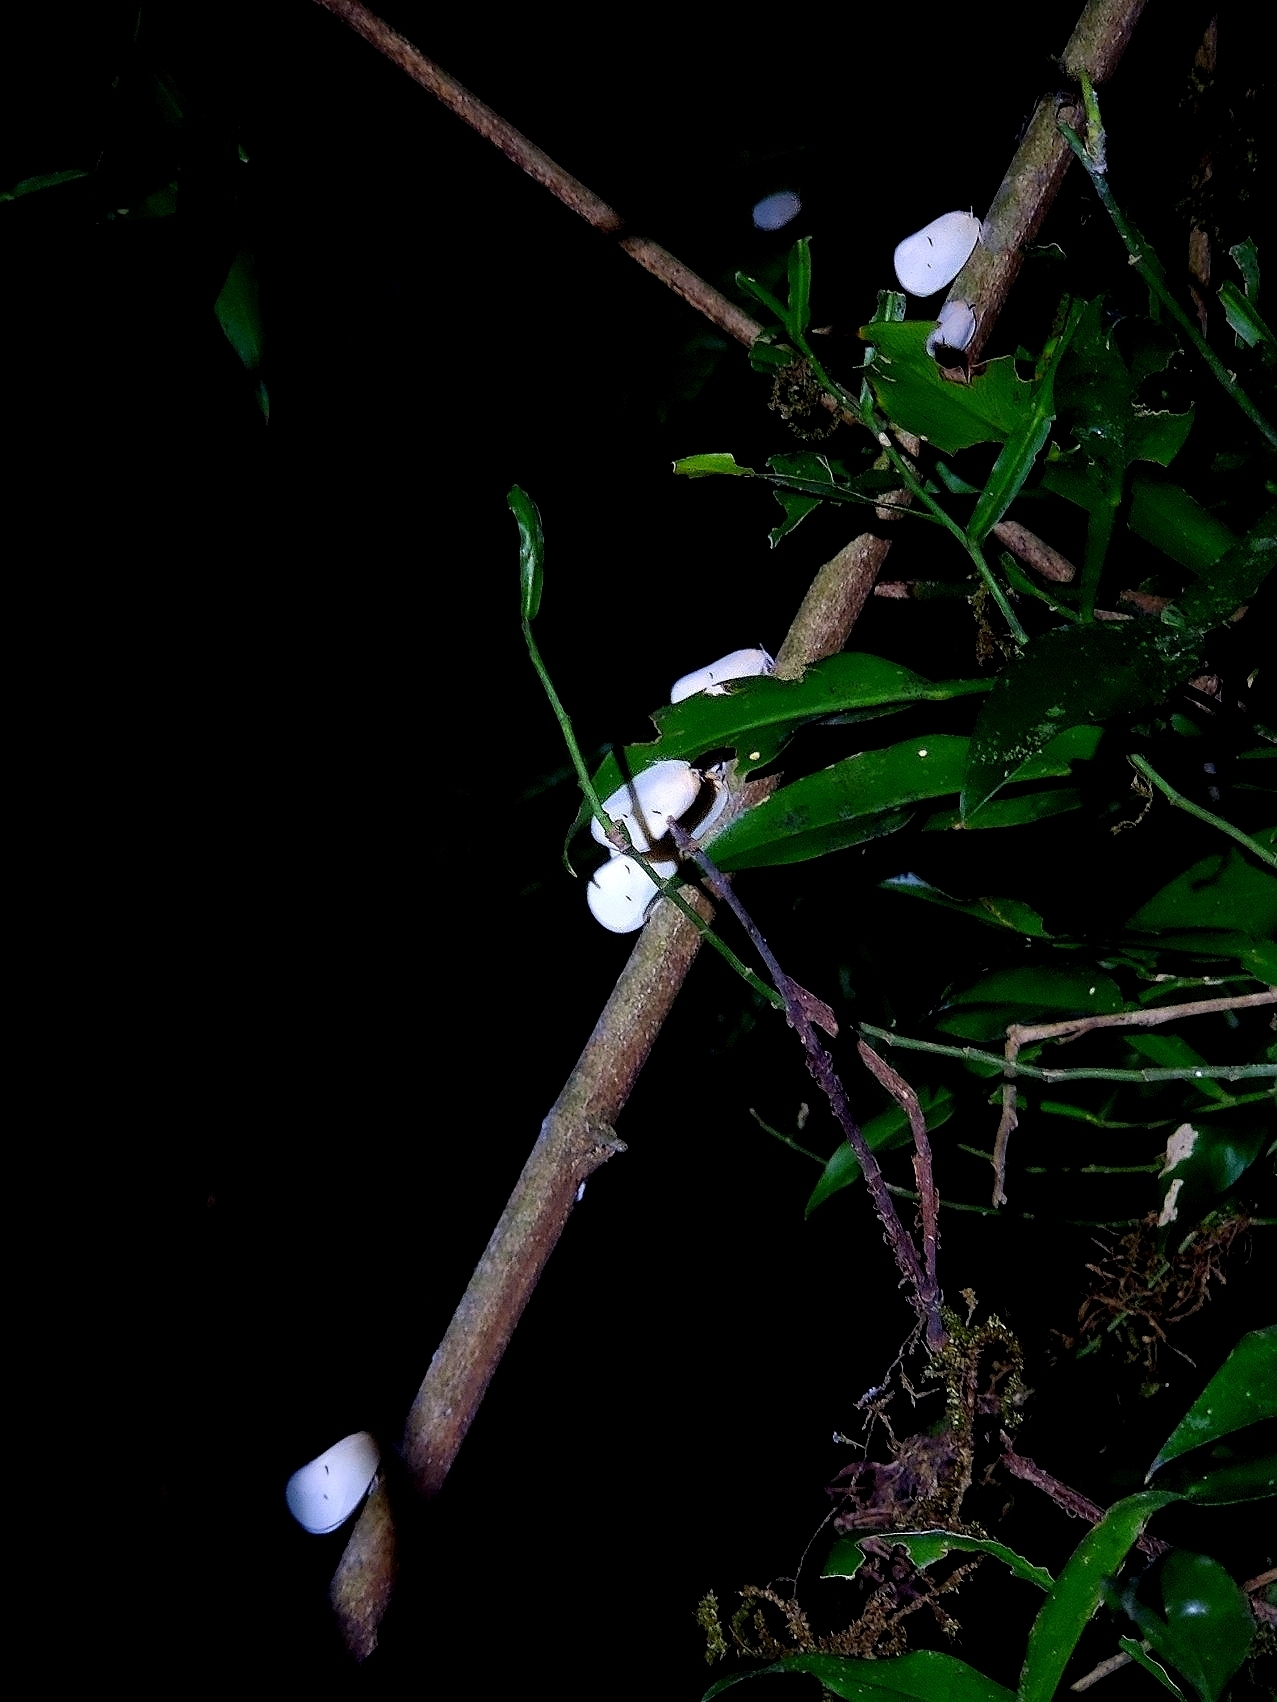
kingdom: Animalia
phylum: Arthropoda
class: Insecta
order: Hemiptera
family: Flatidae
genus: Flatida
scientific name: Flatida viridula
